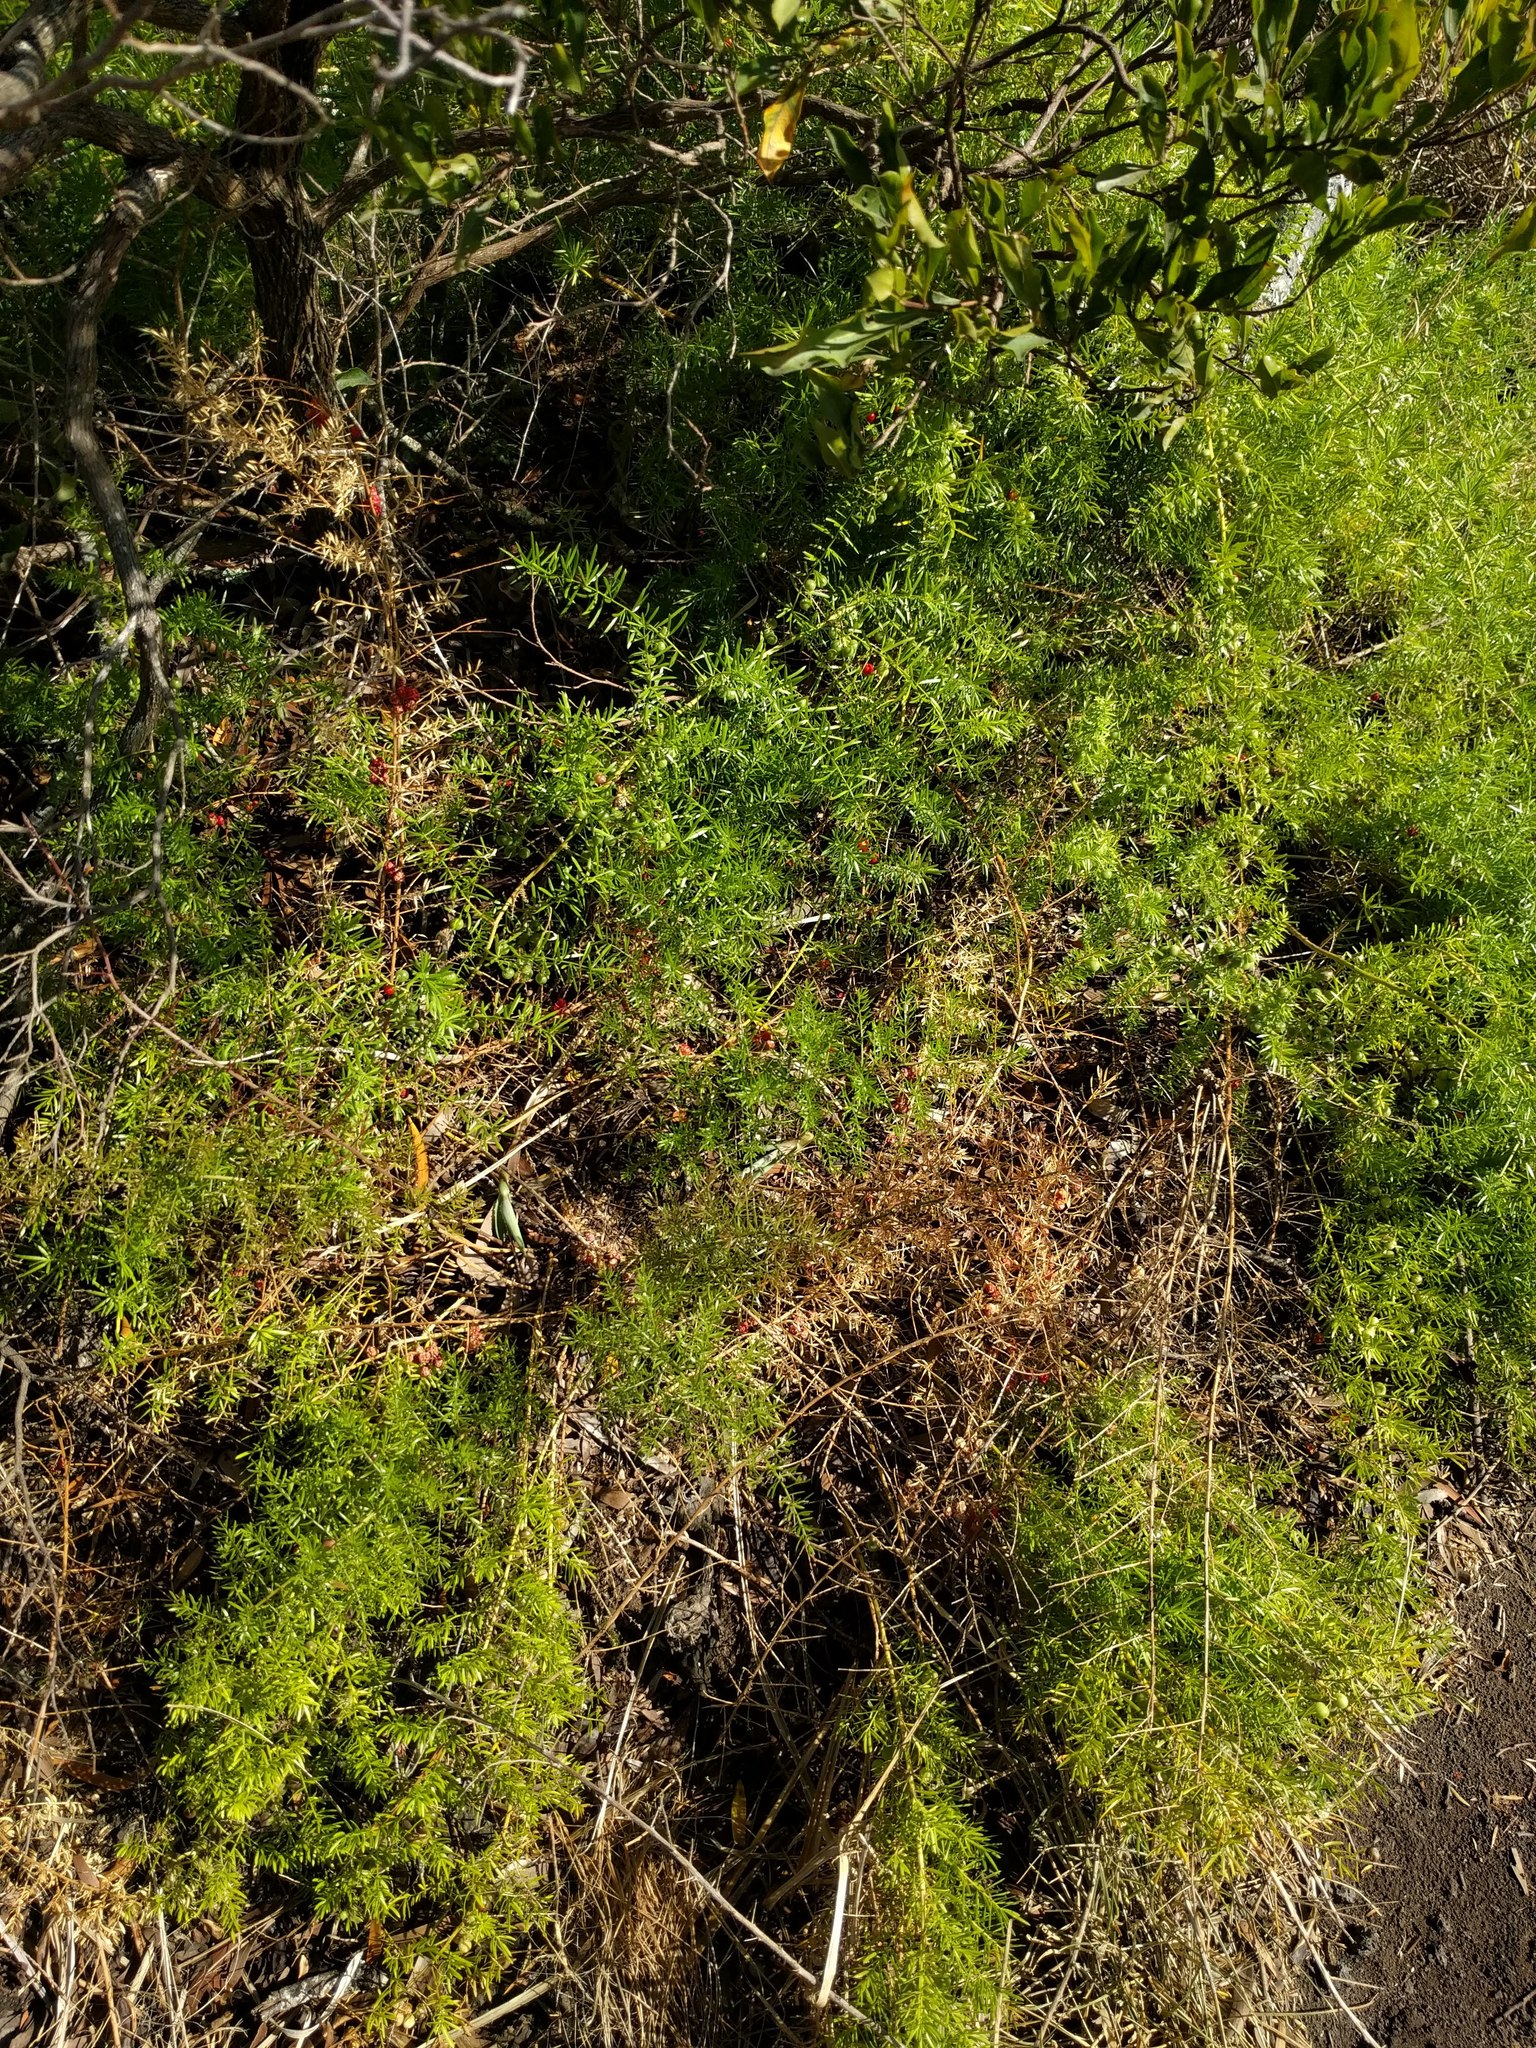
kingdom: Plantae
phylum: Tracheophyta
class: Liliopsida
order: Asparagales
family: Asparagaceae
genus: Asparagus
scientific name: Asparagus aethiopicus
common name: Sprenger's asparagus fern
